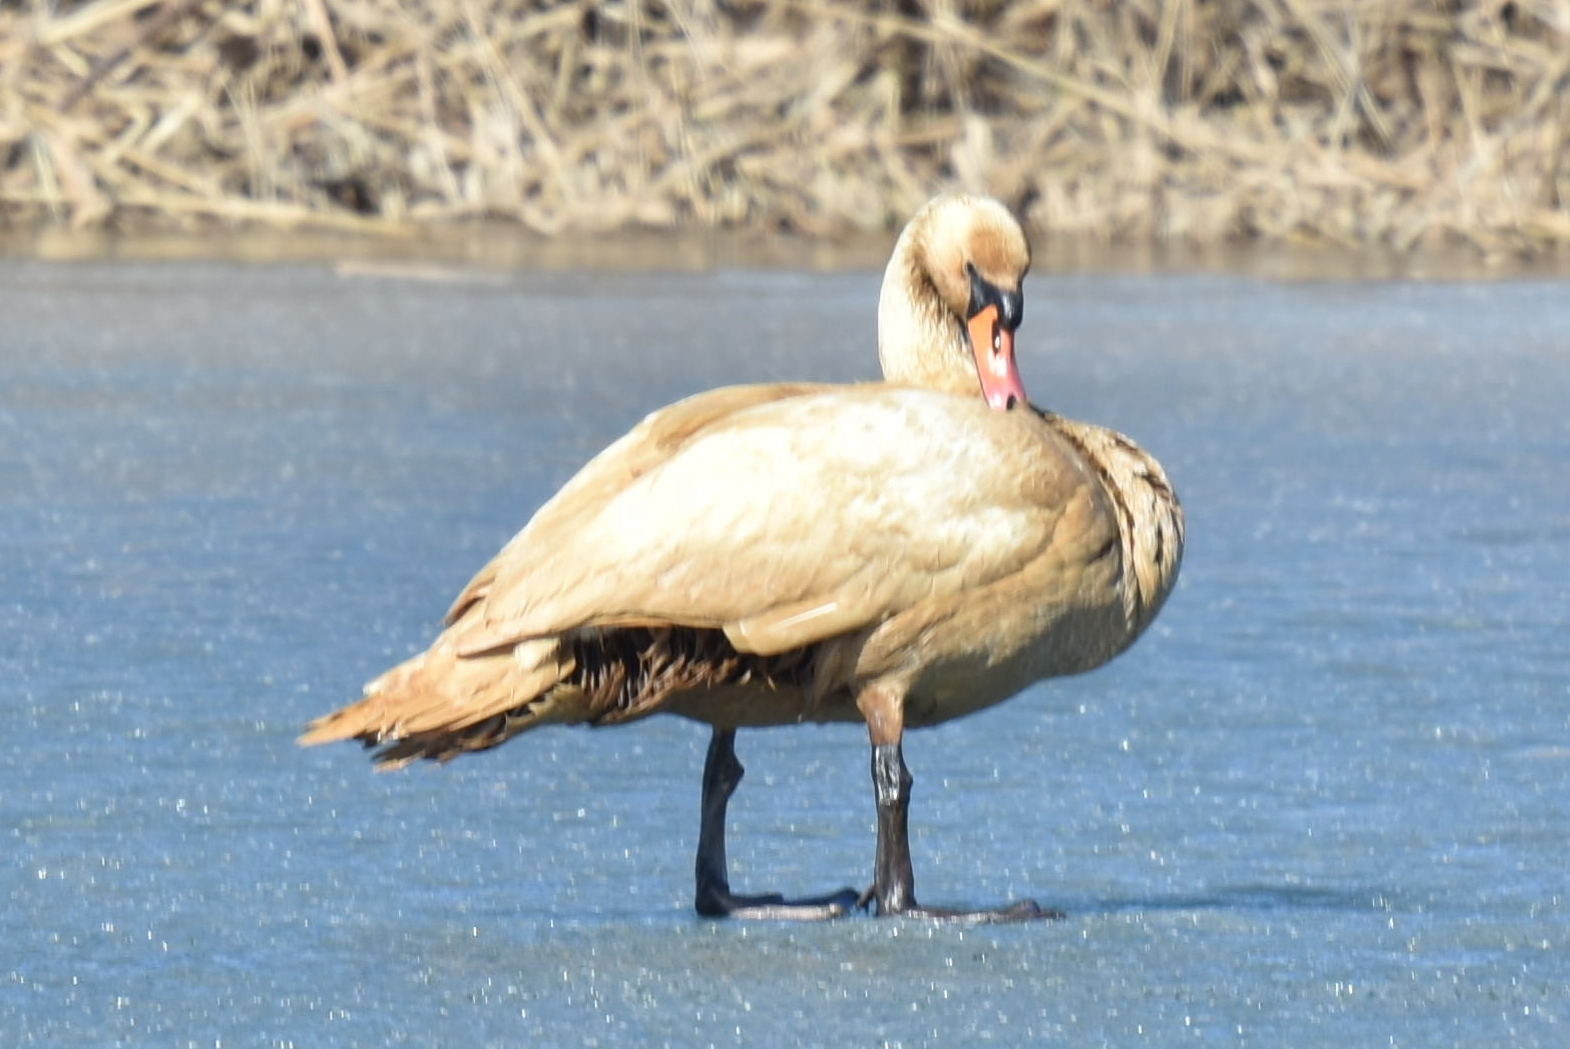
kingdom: Animalia
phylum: Chordata
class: Aves
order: Anseriformes
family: Anatidae
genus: Cygnus
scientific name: Cygnus olor
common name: Mute swan
